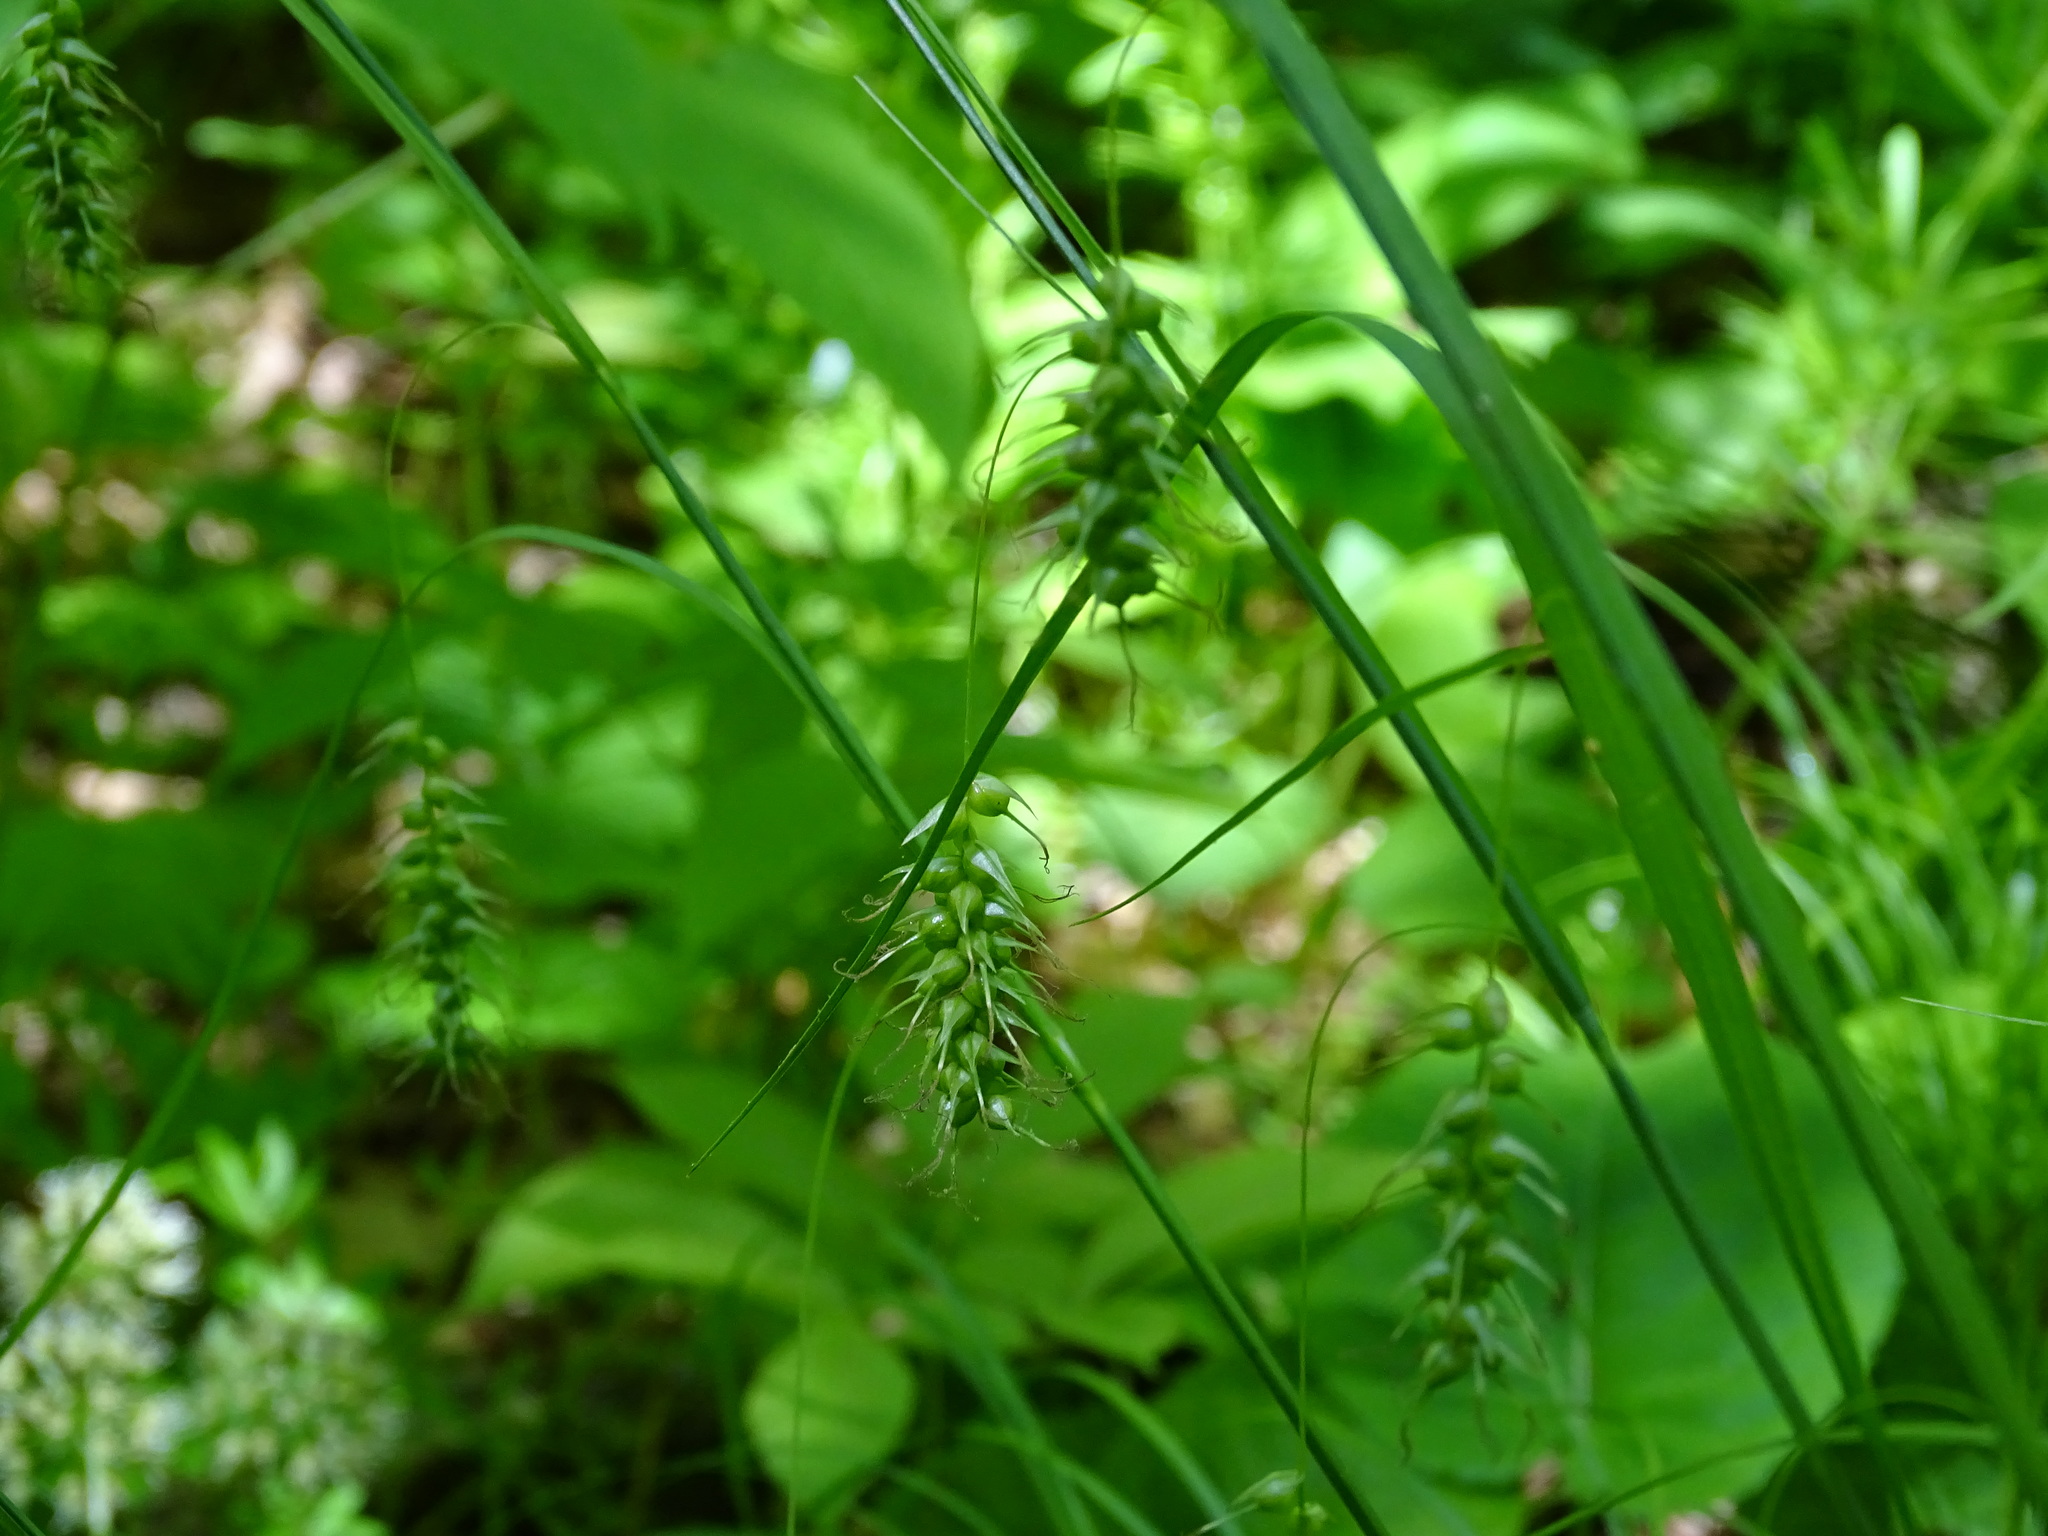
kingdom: Plantae
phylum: Tracheophyta
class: Liliopsida
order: Poales
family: Cyperaceae
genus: Carex
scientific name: Carex sprengelii
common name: Long-beaked sedge
